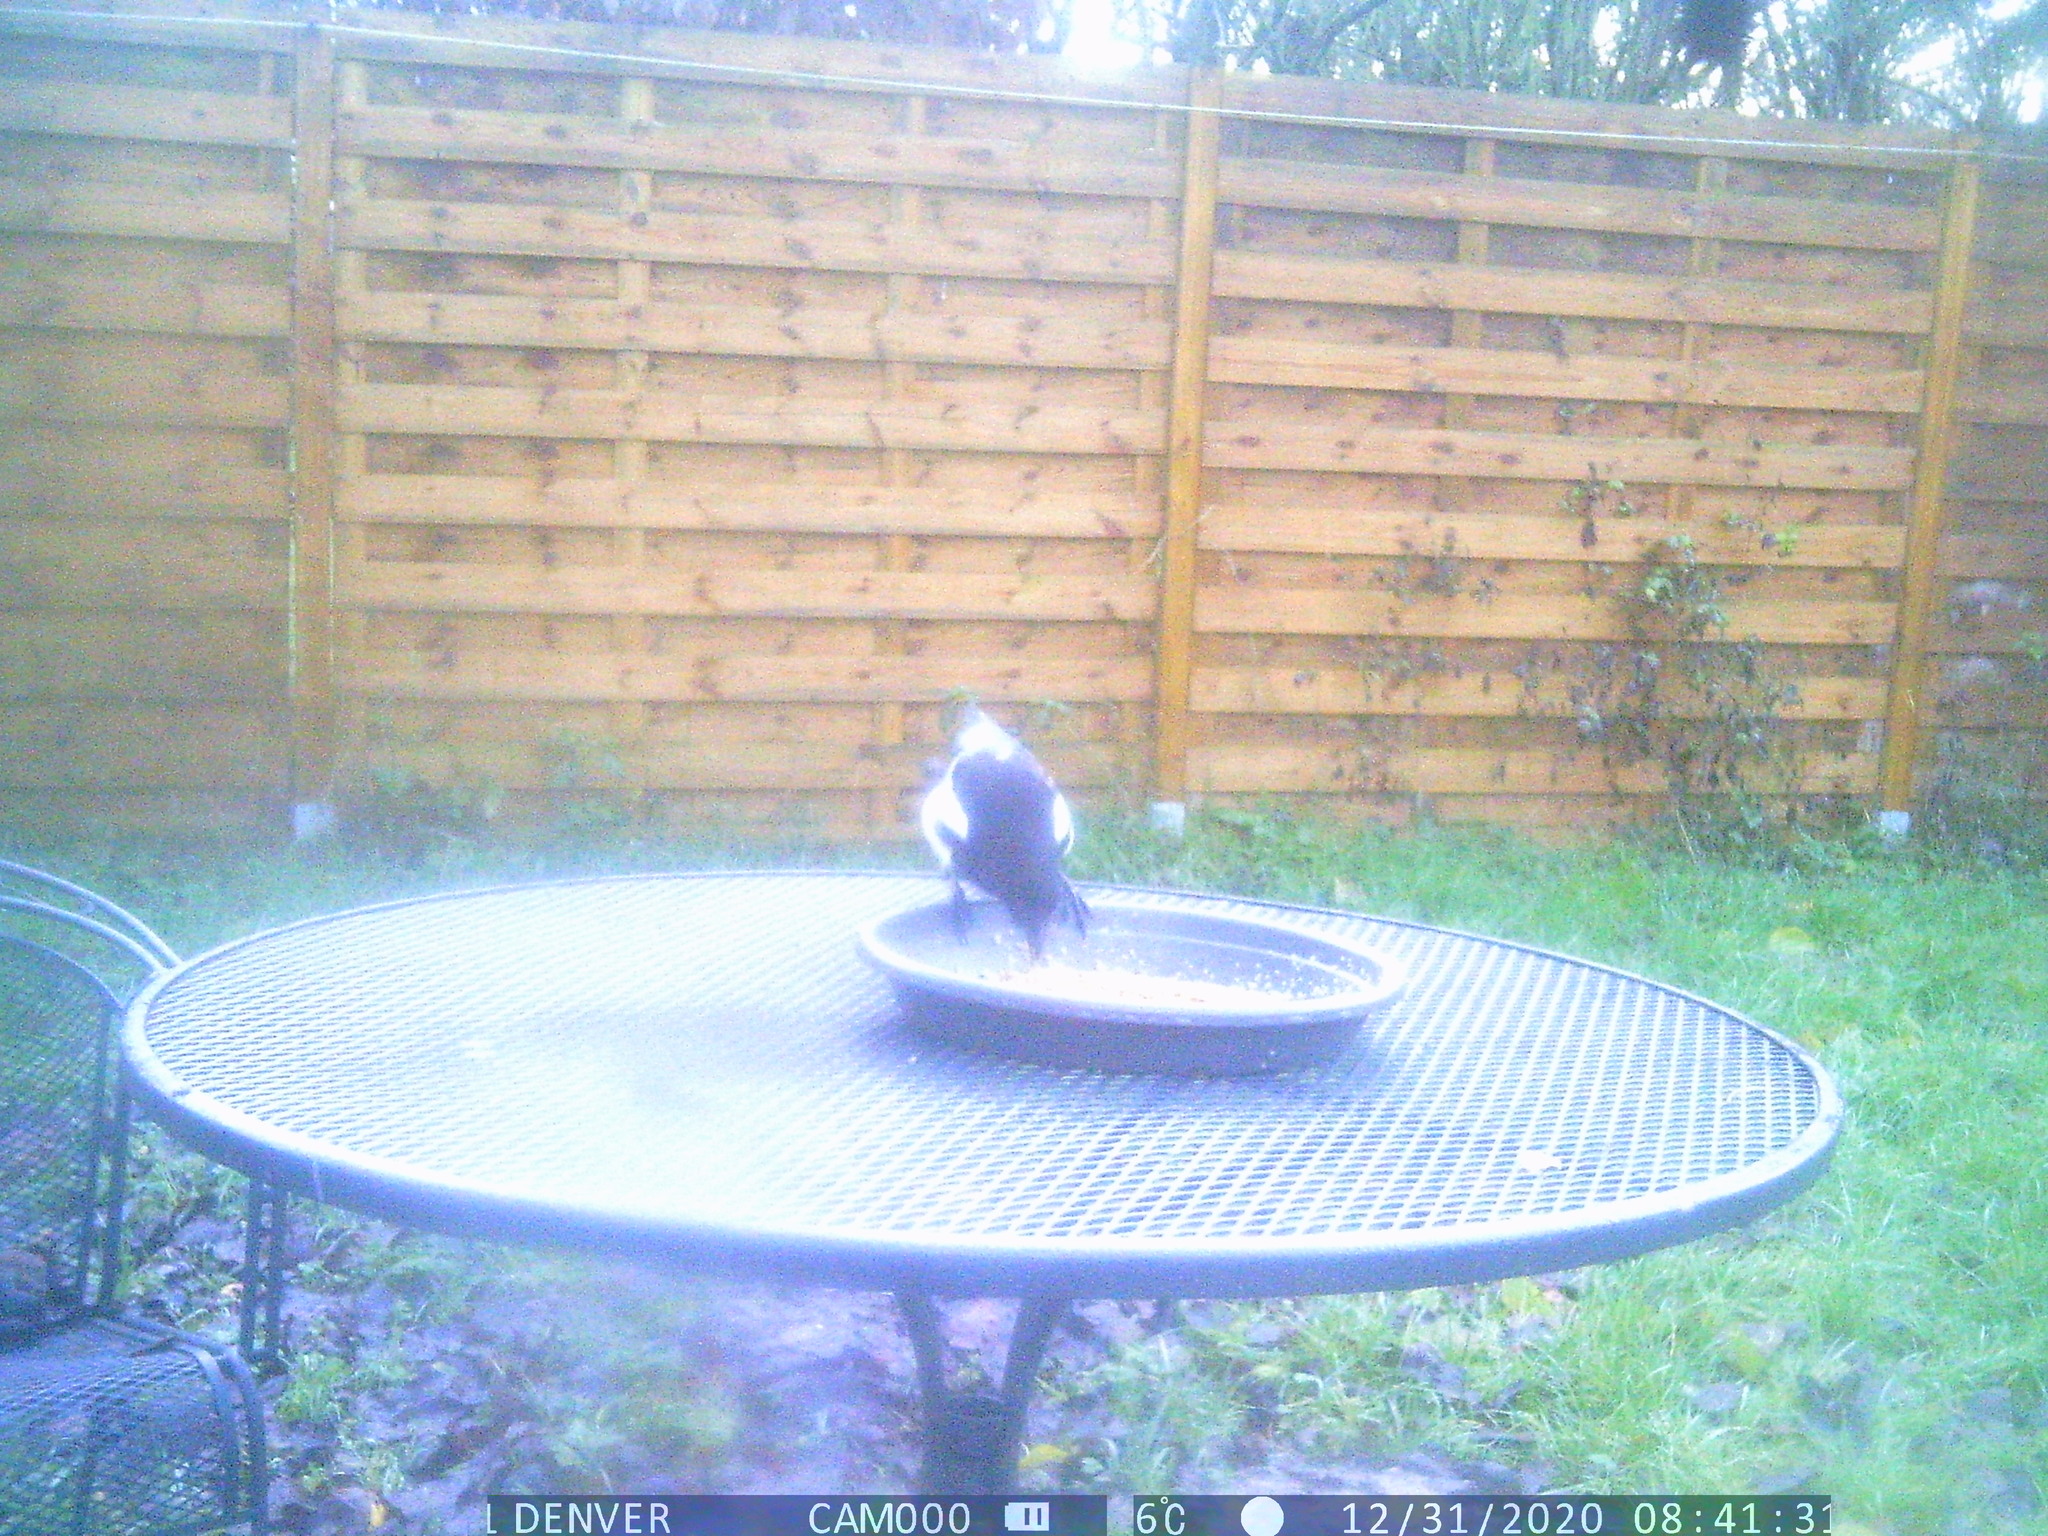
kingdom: Animalia
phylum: Chordata
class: Aves
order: Passeriformes
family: Corvidae
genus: Pica
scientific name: Pica pica
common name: Eurasian magpie
